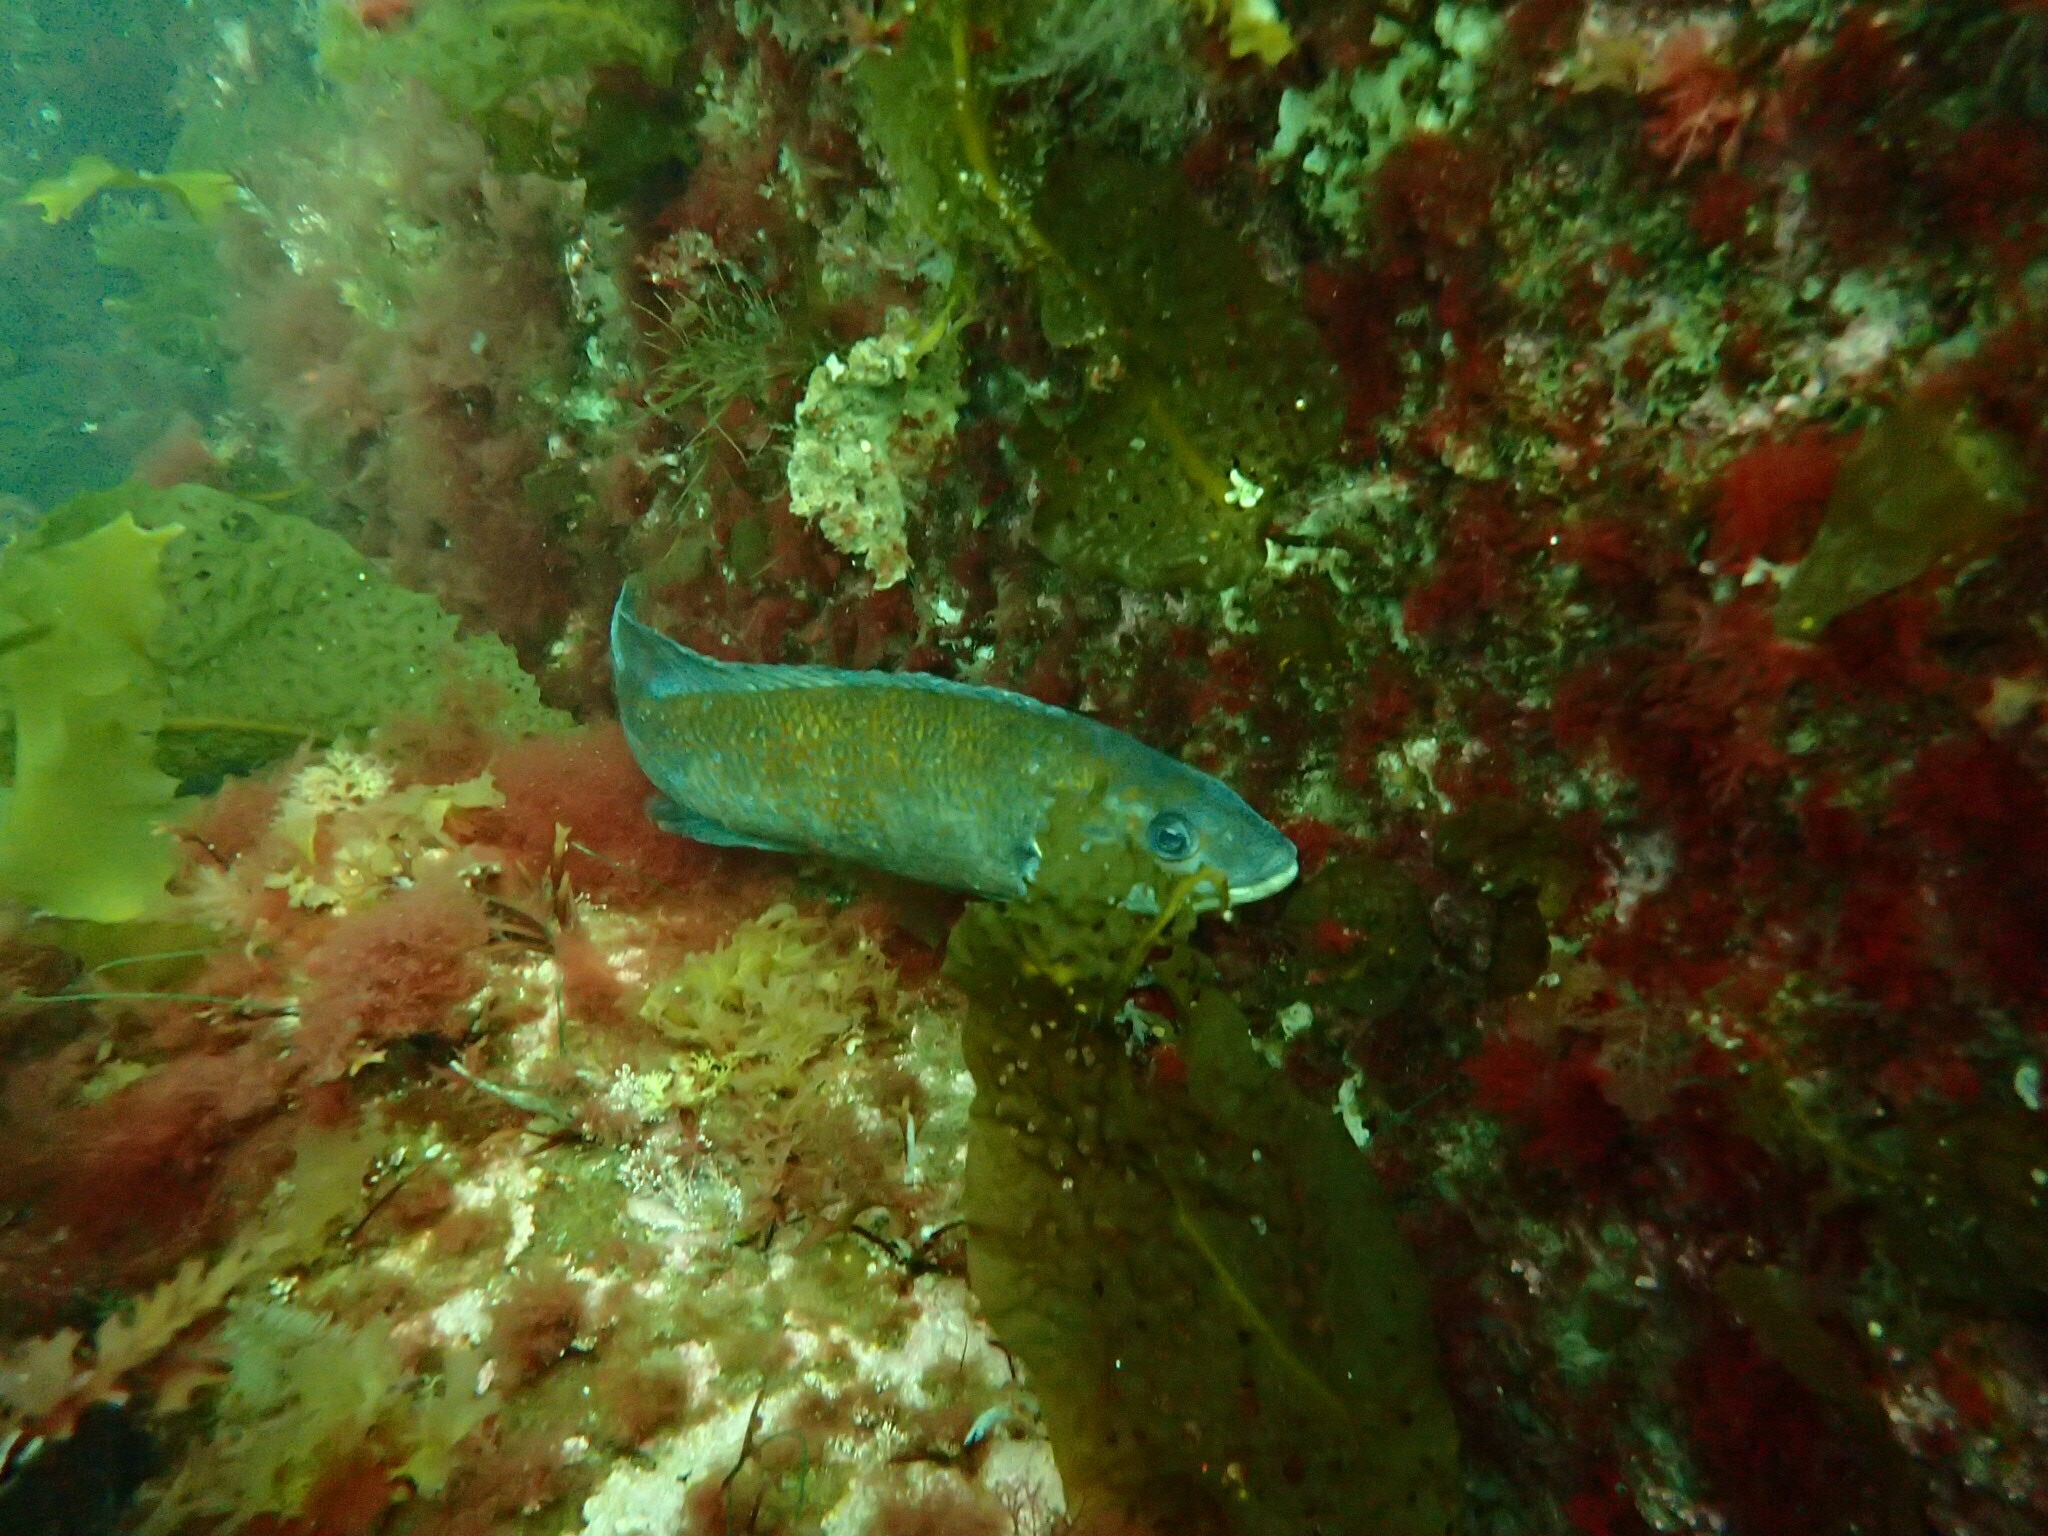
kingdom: Animalia
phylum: Chordata
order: Perciformes
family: Labridae
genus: Tautogolabrus
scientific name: Tautogolabrus adspersus
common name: Cunner
